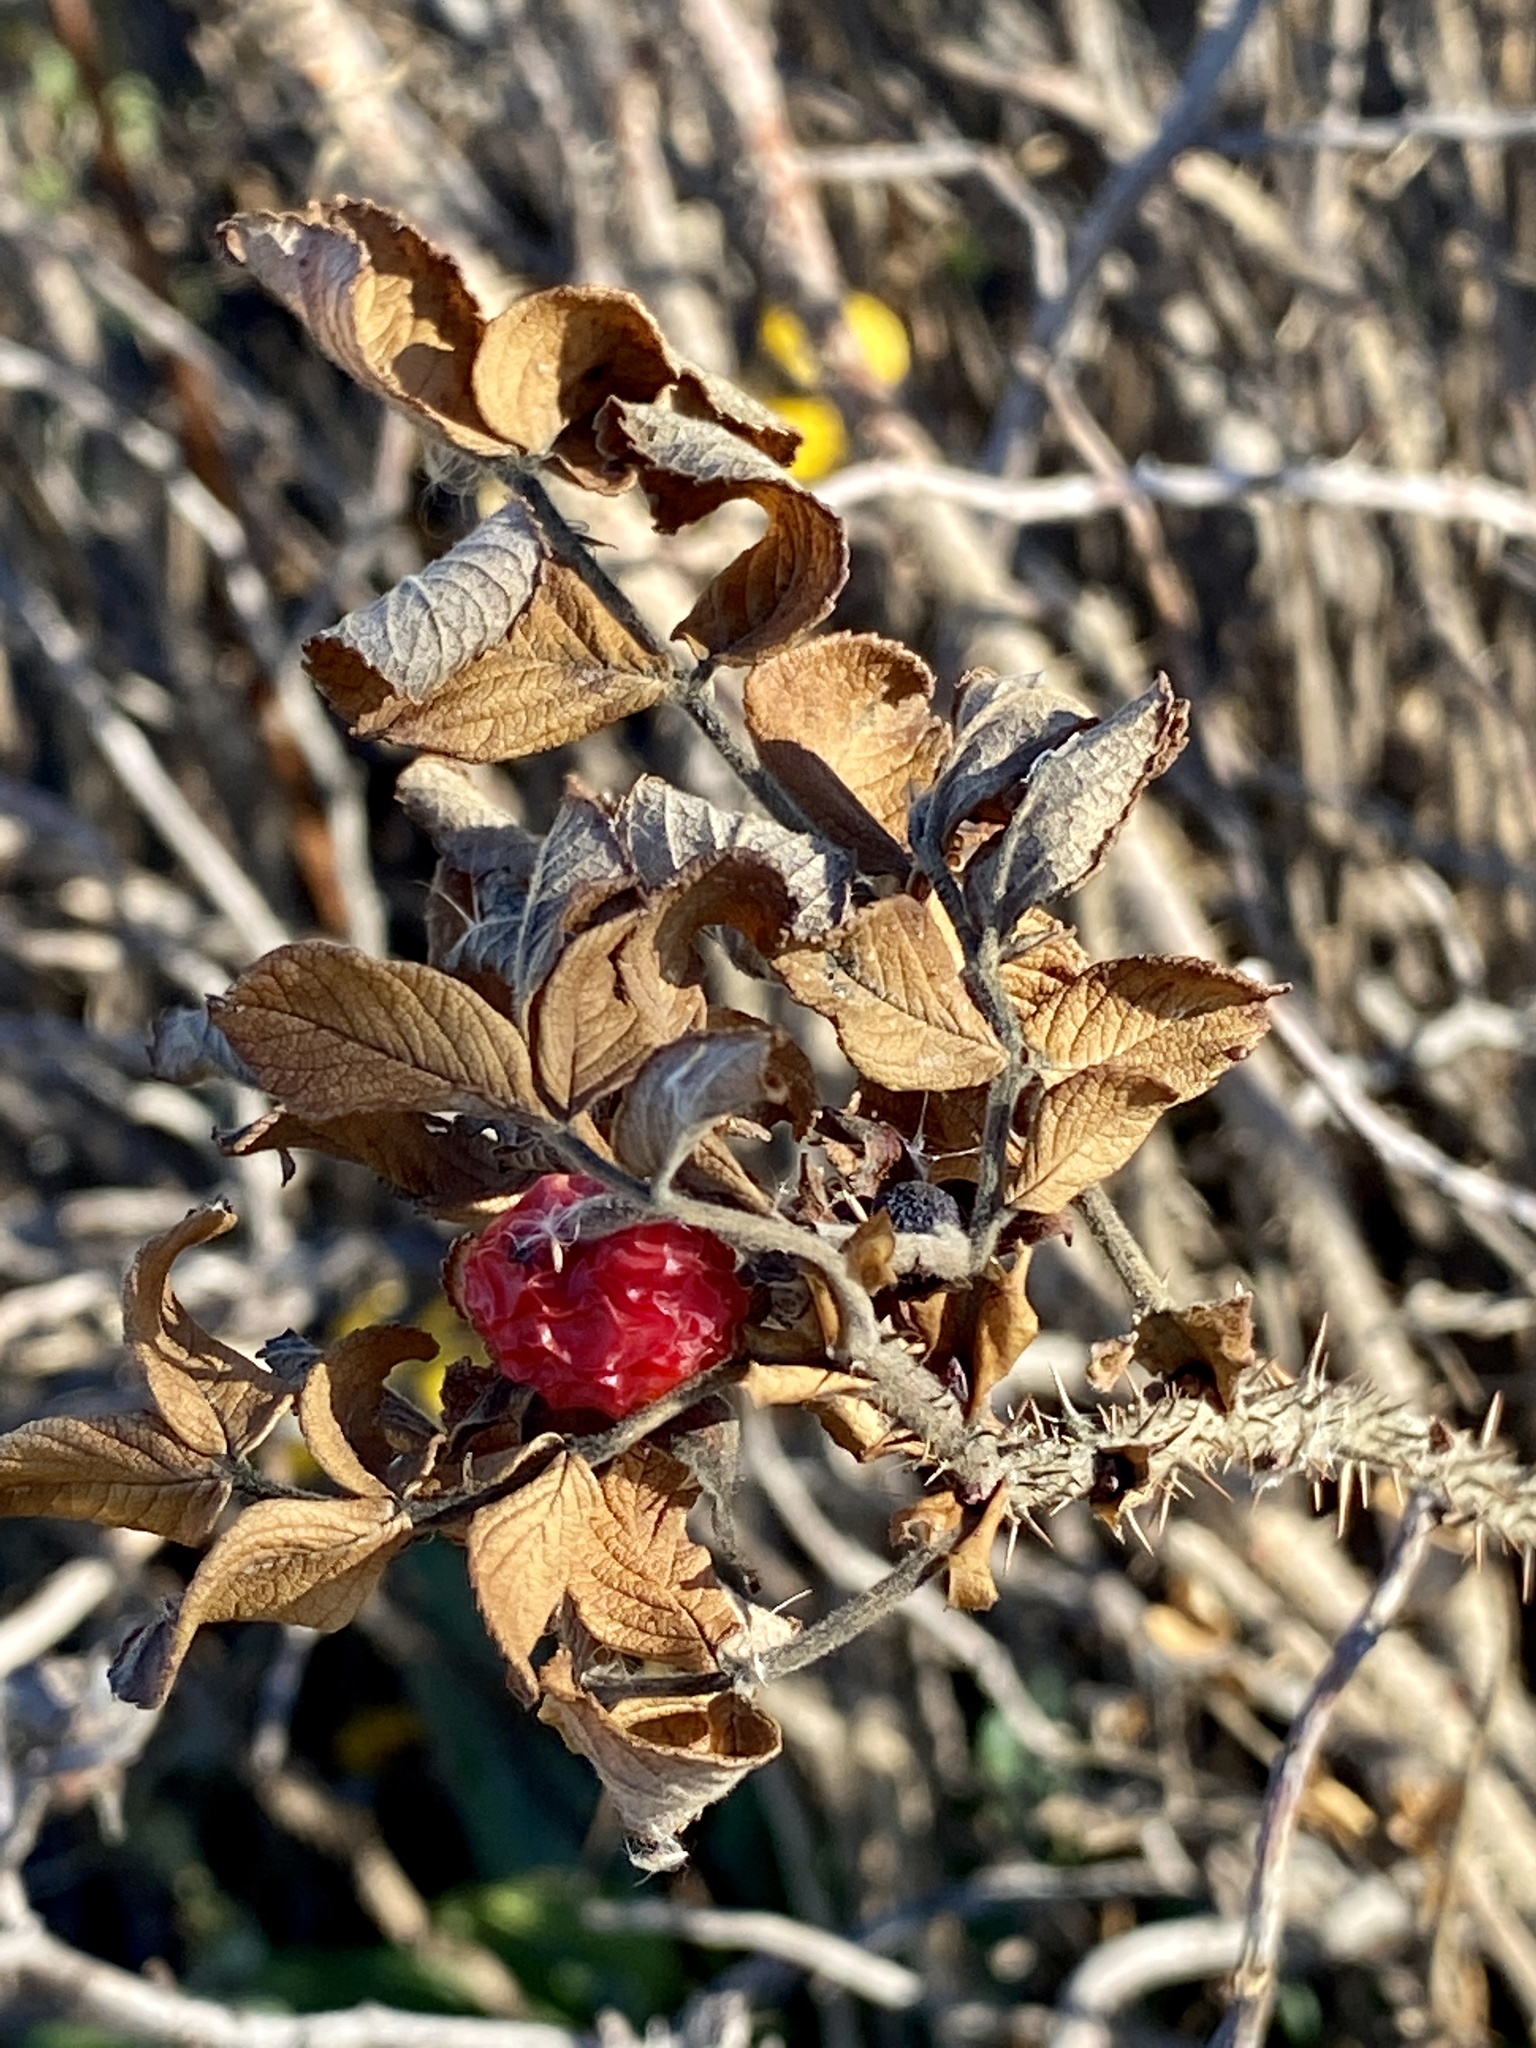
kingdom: Plantae
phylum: Tracheophyta
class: Magnoliopsida
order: Rosales
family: Rosaceae
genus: Rosa
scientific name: Rosa rugosa
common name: Japanese rose
